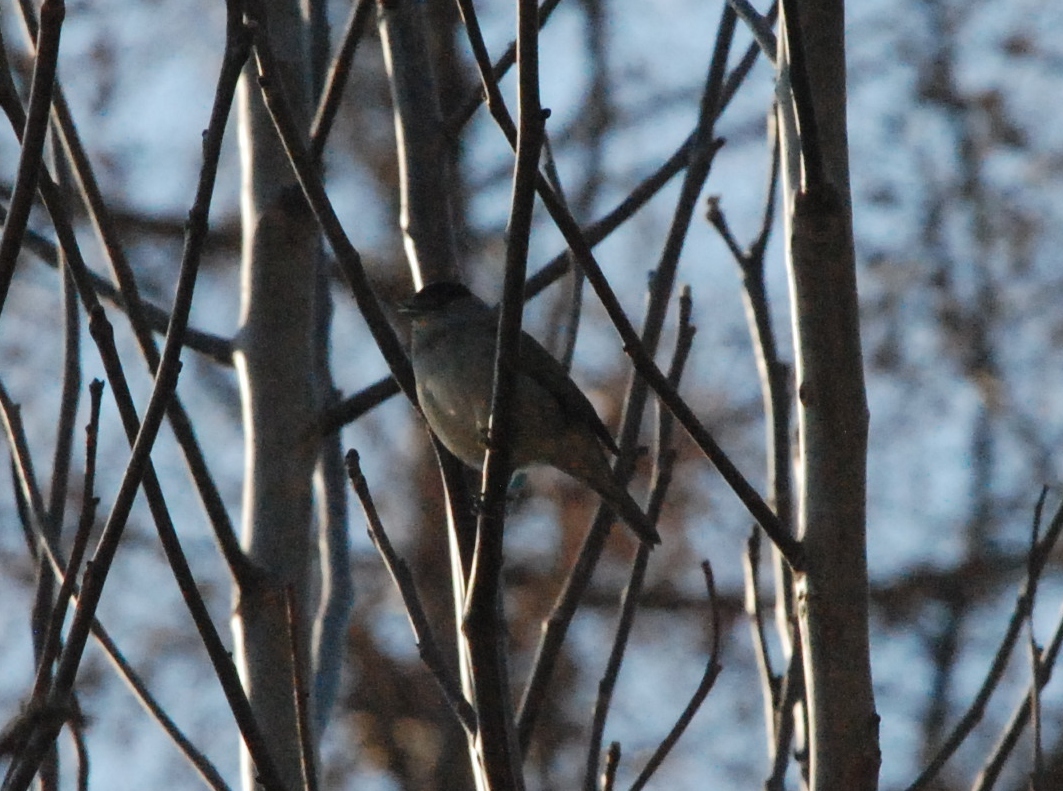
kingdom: Animalia
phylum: Chordata
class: Aves
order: Passeriformes
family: Sylviidae
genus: Sylvia
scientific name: Sylvia atricapilla
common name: Eurasian blackcap
